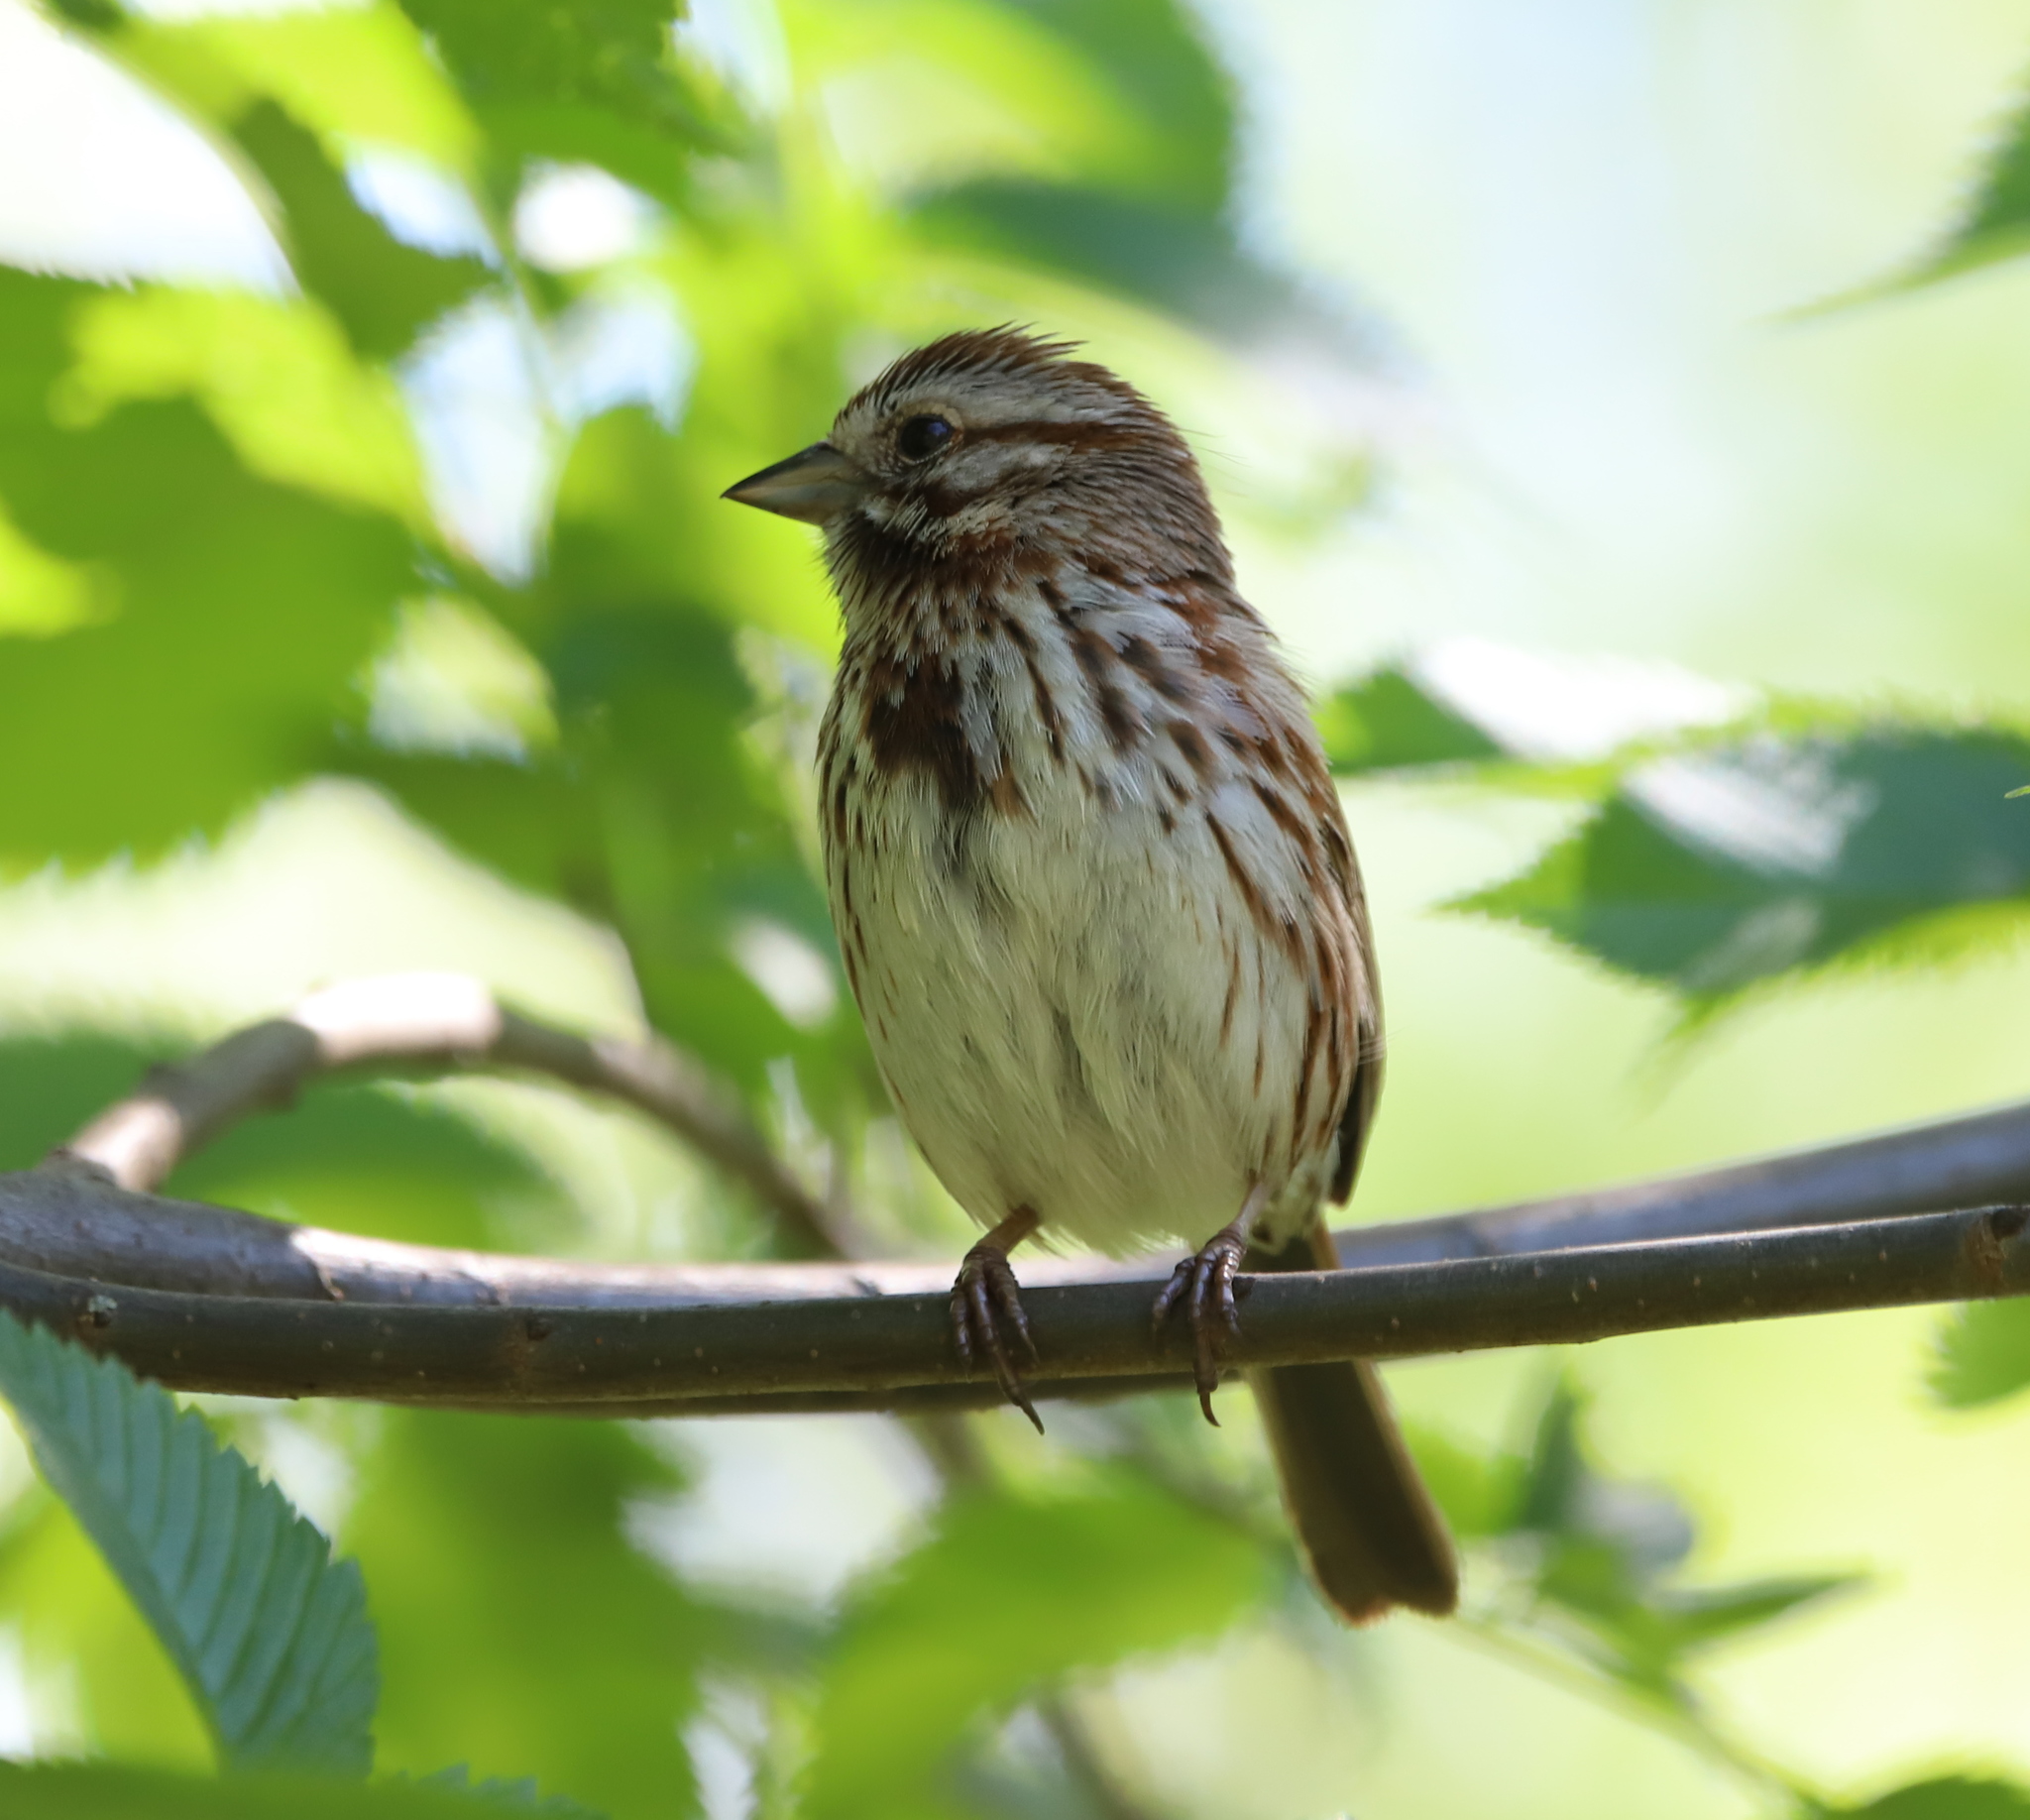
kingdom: Animalia
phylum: Chordata
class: Aves
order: Passeriformes
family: Passerellidae
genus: Melospiza
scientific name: Melospiza melodia
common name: Song sparrow
